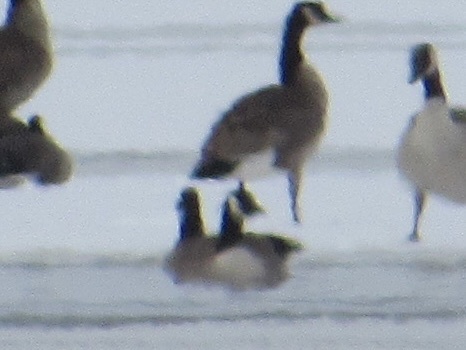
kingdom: Animalia
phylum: Chordata
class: Aves
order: Anseriformes
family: Anatidae
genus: Branta
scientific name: Branta hutchinsii
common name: Cackling goose
